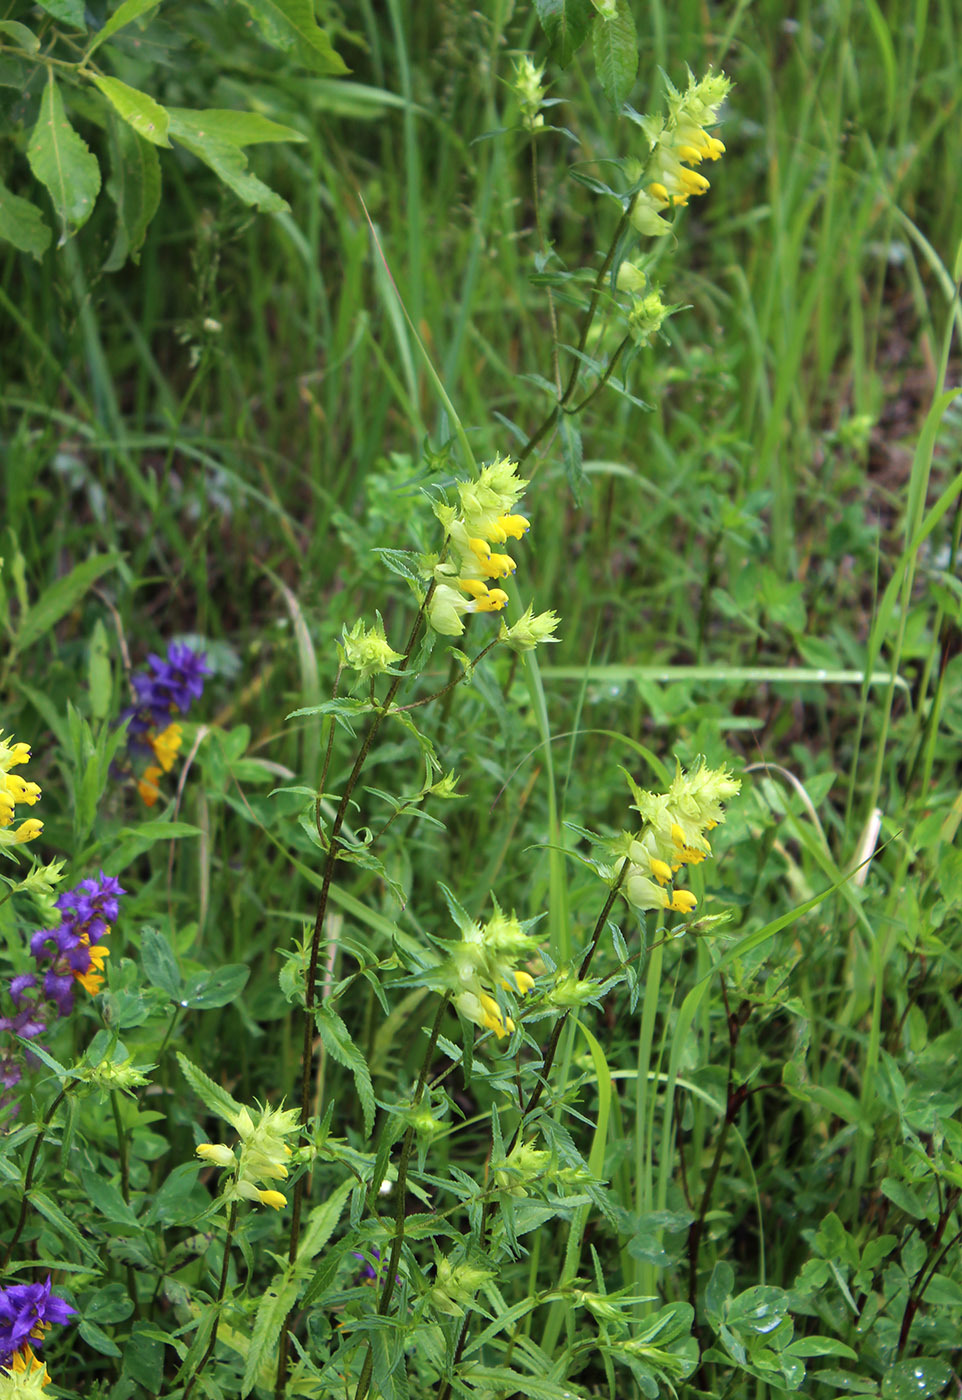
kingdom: Plantae
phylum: Tracheophyta
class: Magnoliopsida
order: Lamiales
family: Orobanchaceae
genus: Rhinanthus
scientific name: Rhinanthus serotinus
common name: Late-flowering yellow rattle
